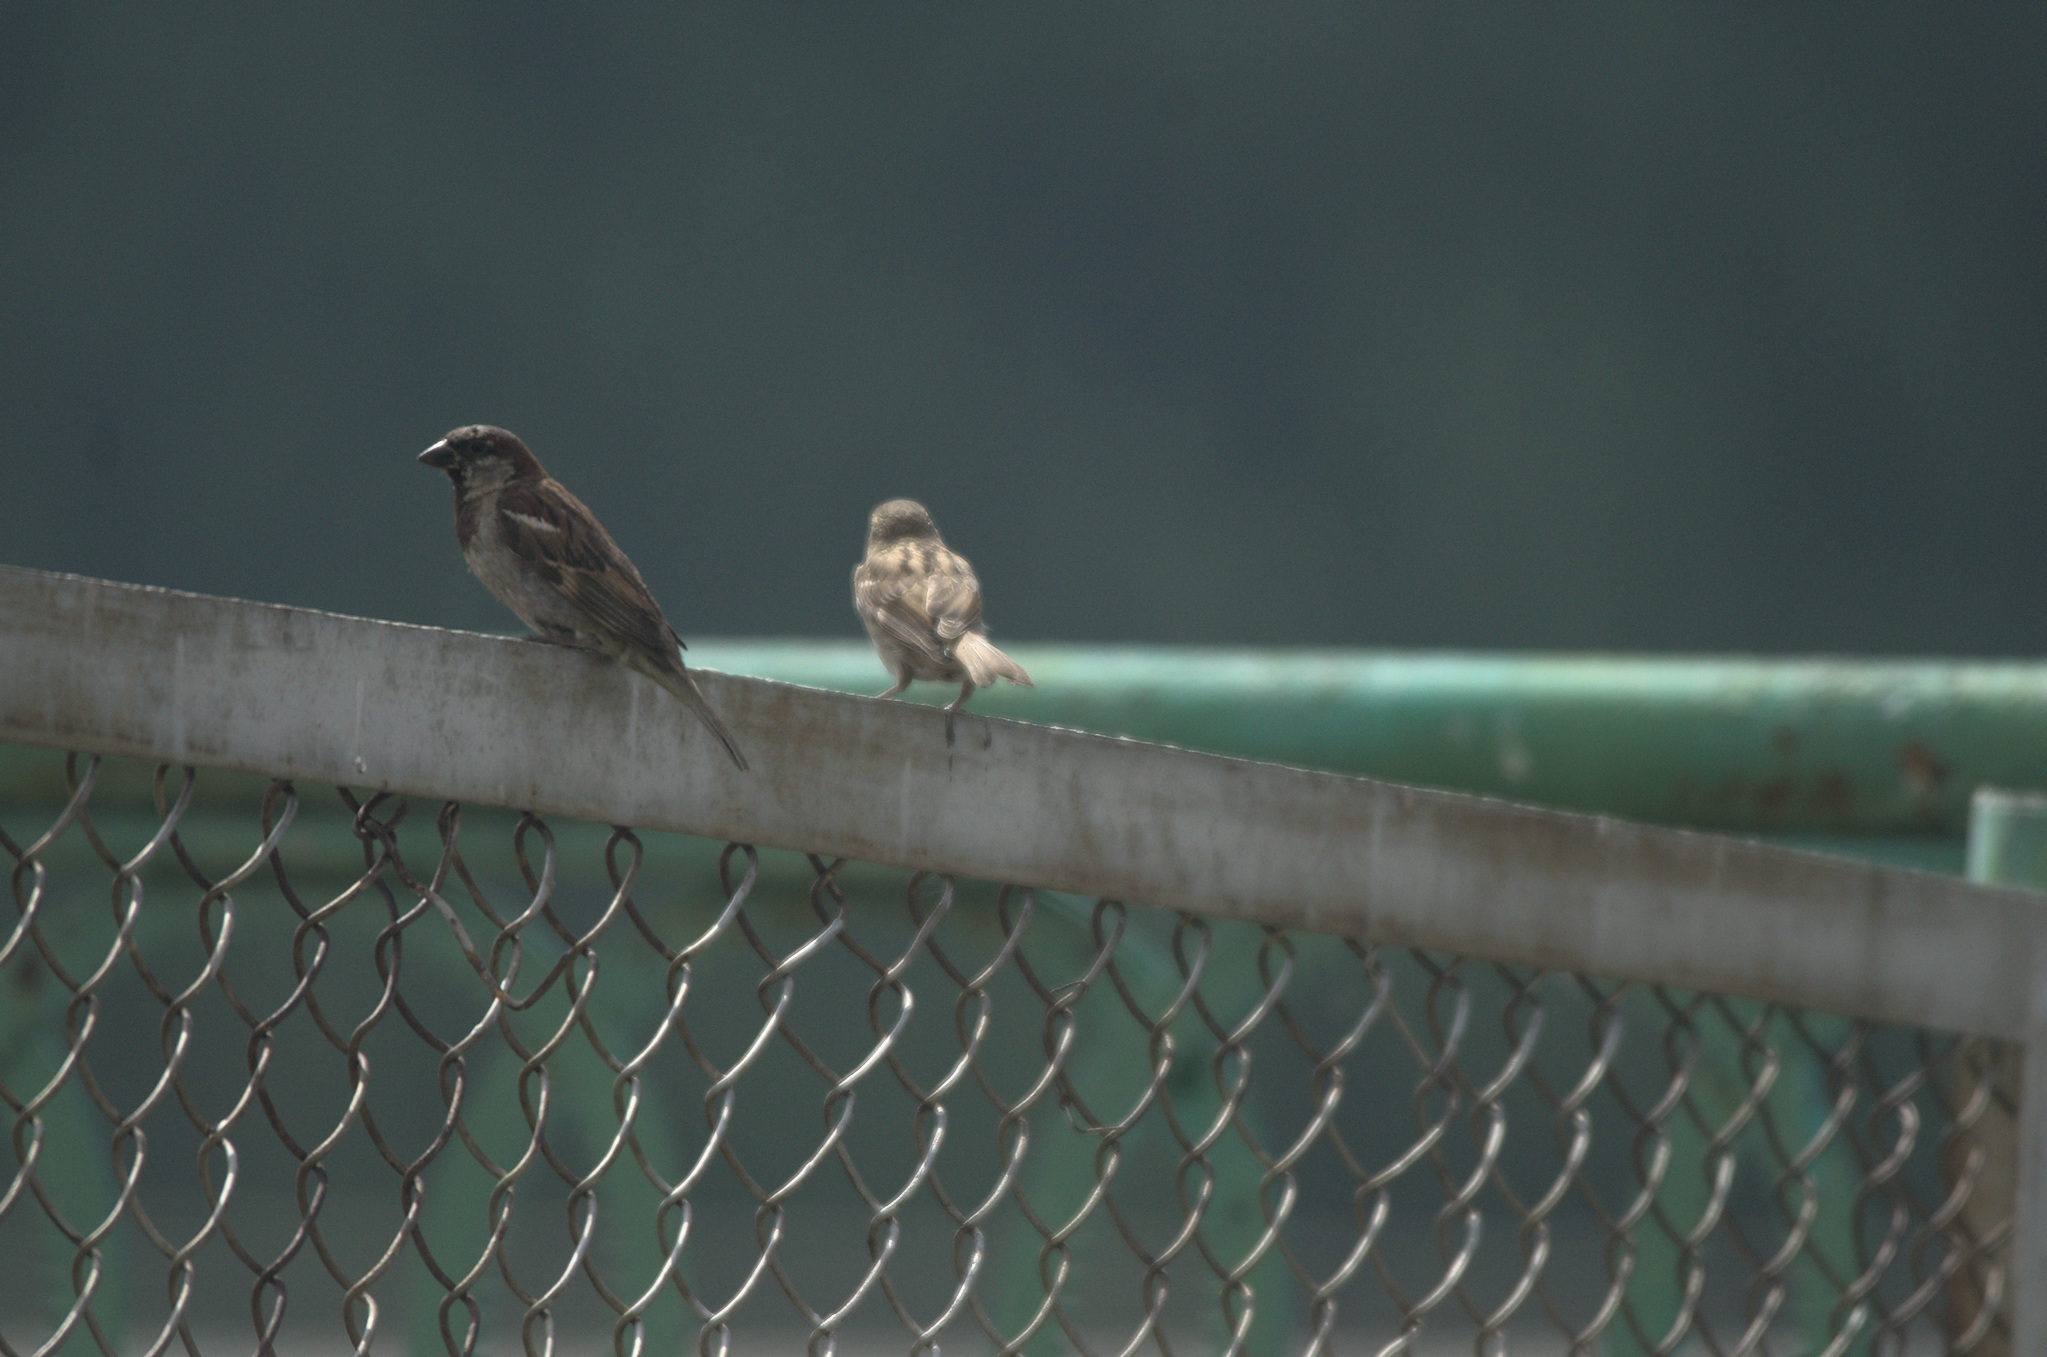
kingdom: Animalia
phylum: Chordata
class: Aves
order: Passeriformes
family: Passeridae
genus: Passer
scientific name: Passer domesticus
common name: House sparrow
